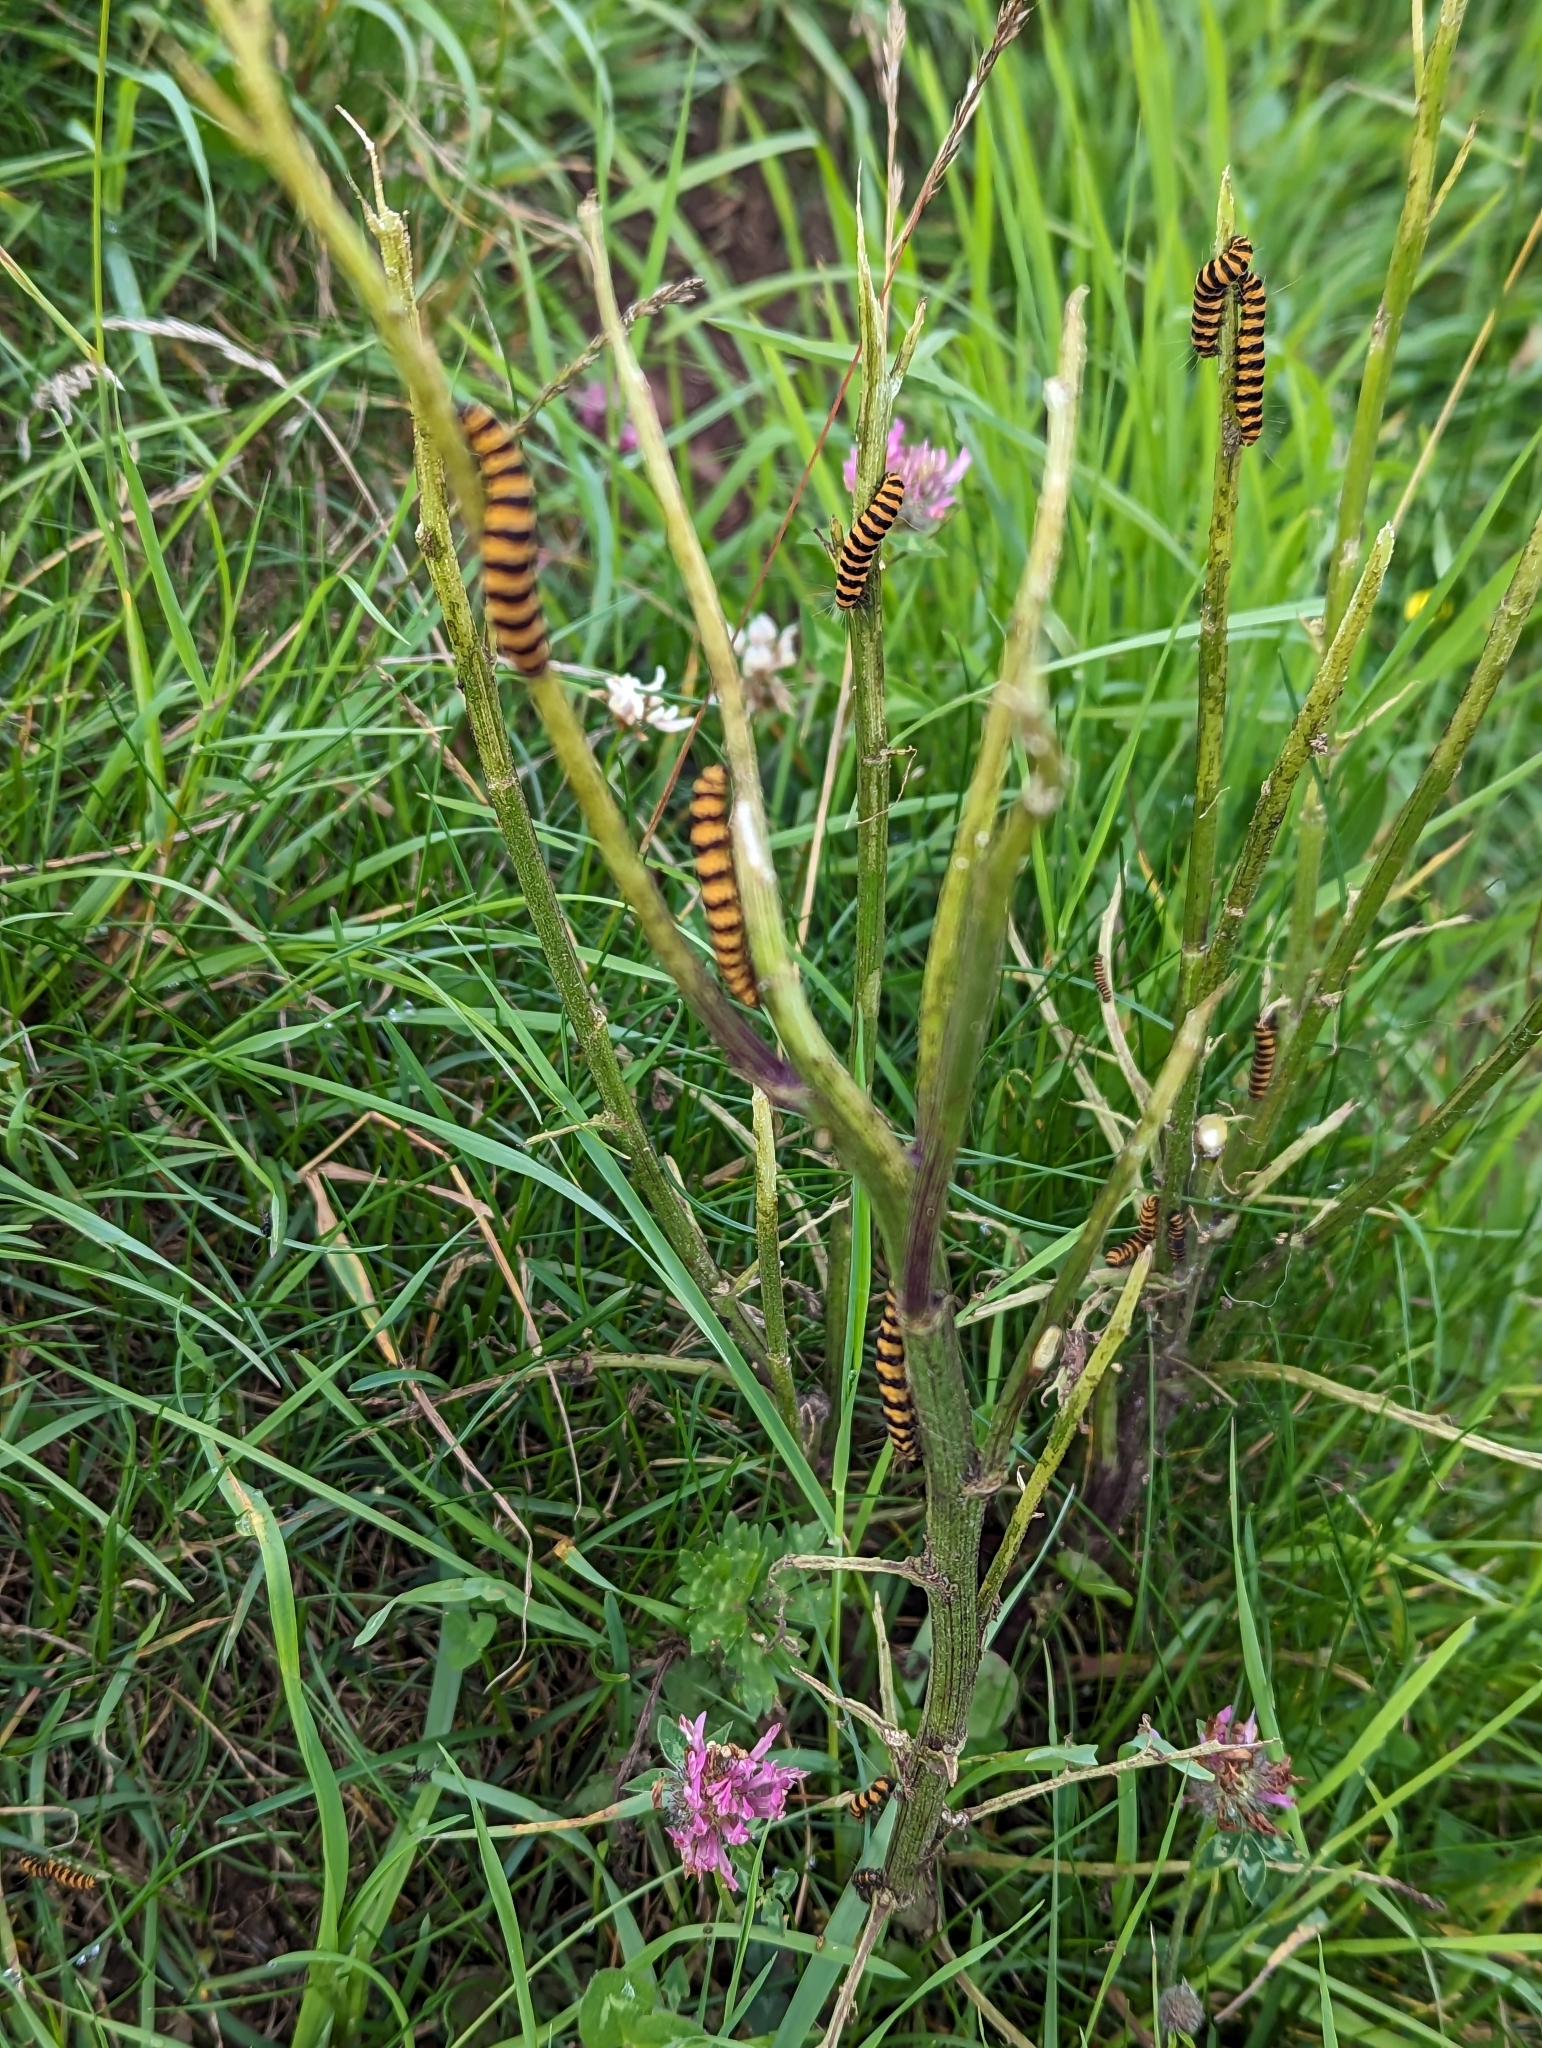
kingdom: Animalia
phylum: Arthropoda
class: Insecta
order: Lepidoptera
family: Erebidae
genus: Tyria
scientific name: Tyria jacobaeae
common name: Cinnabar
